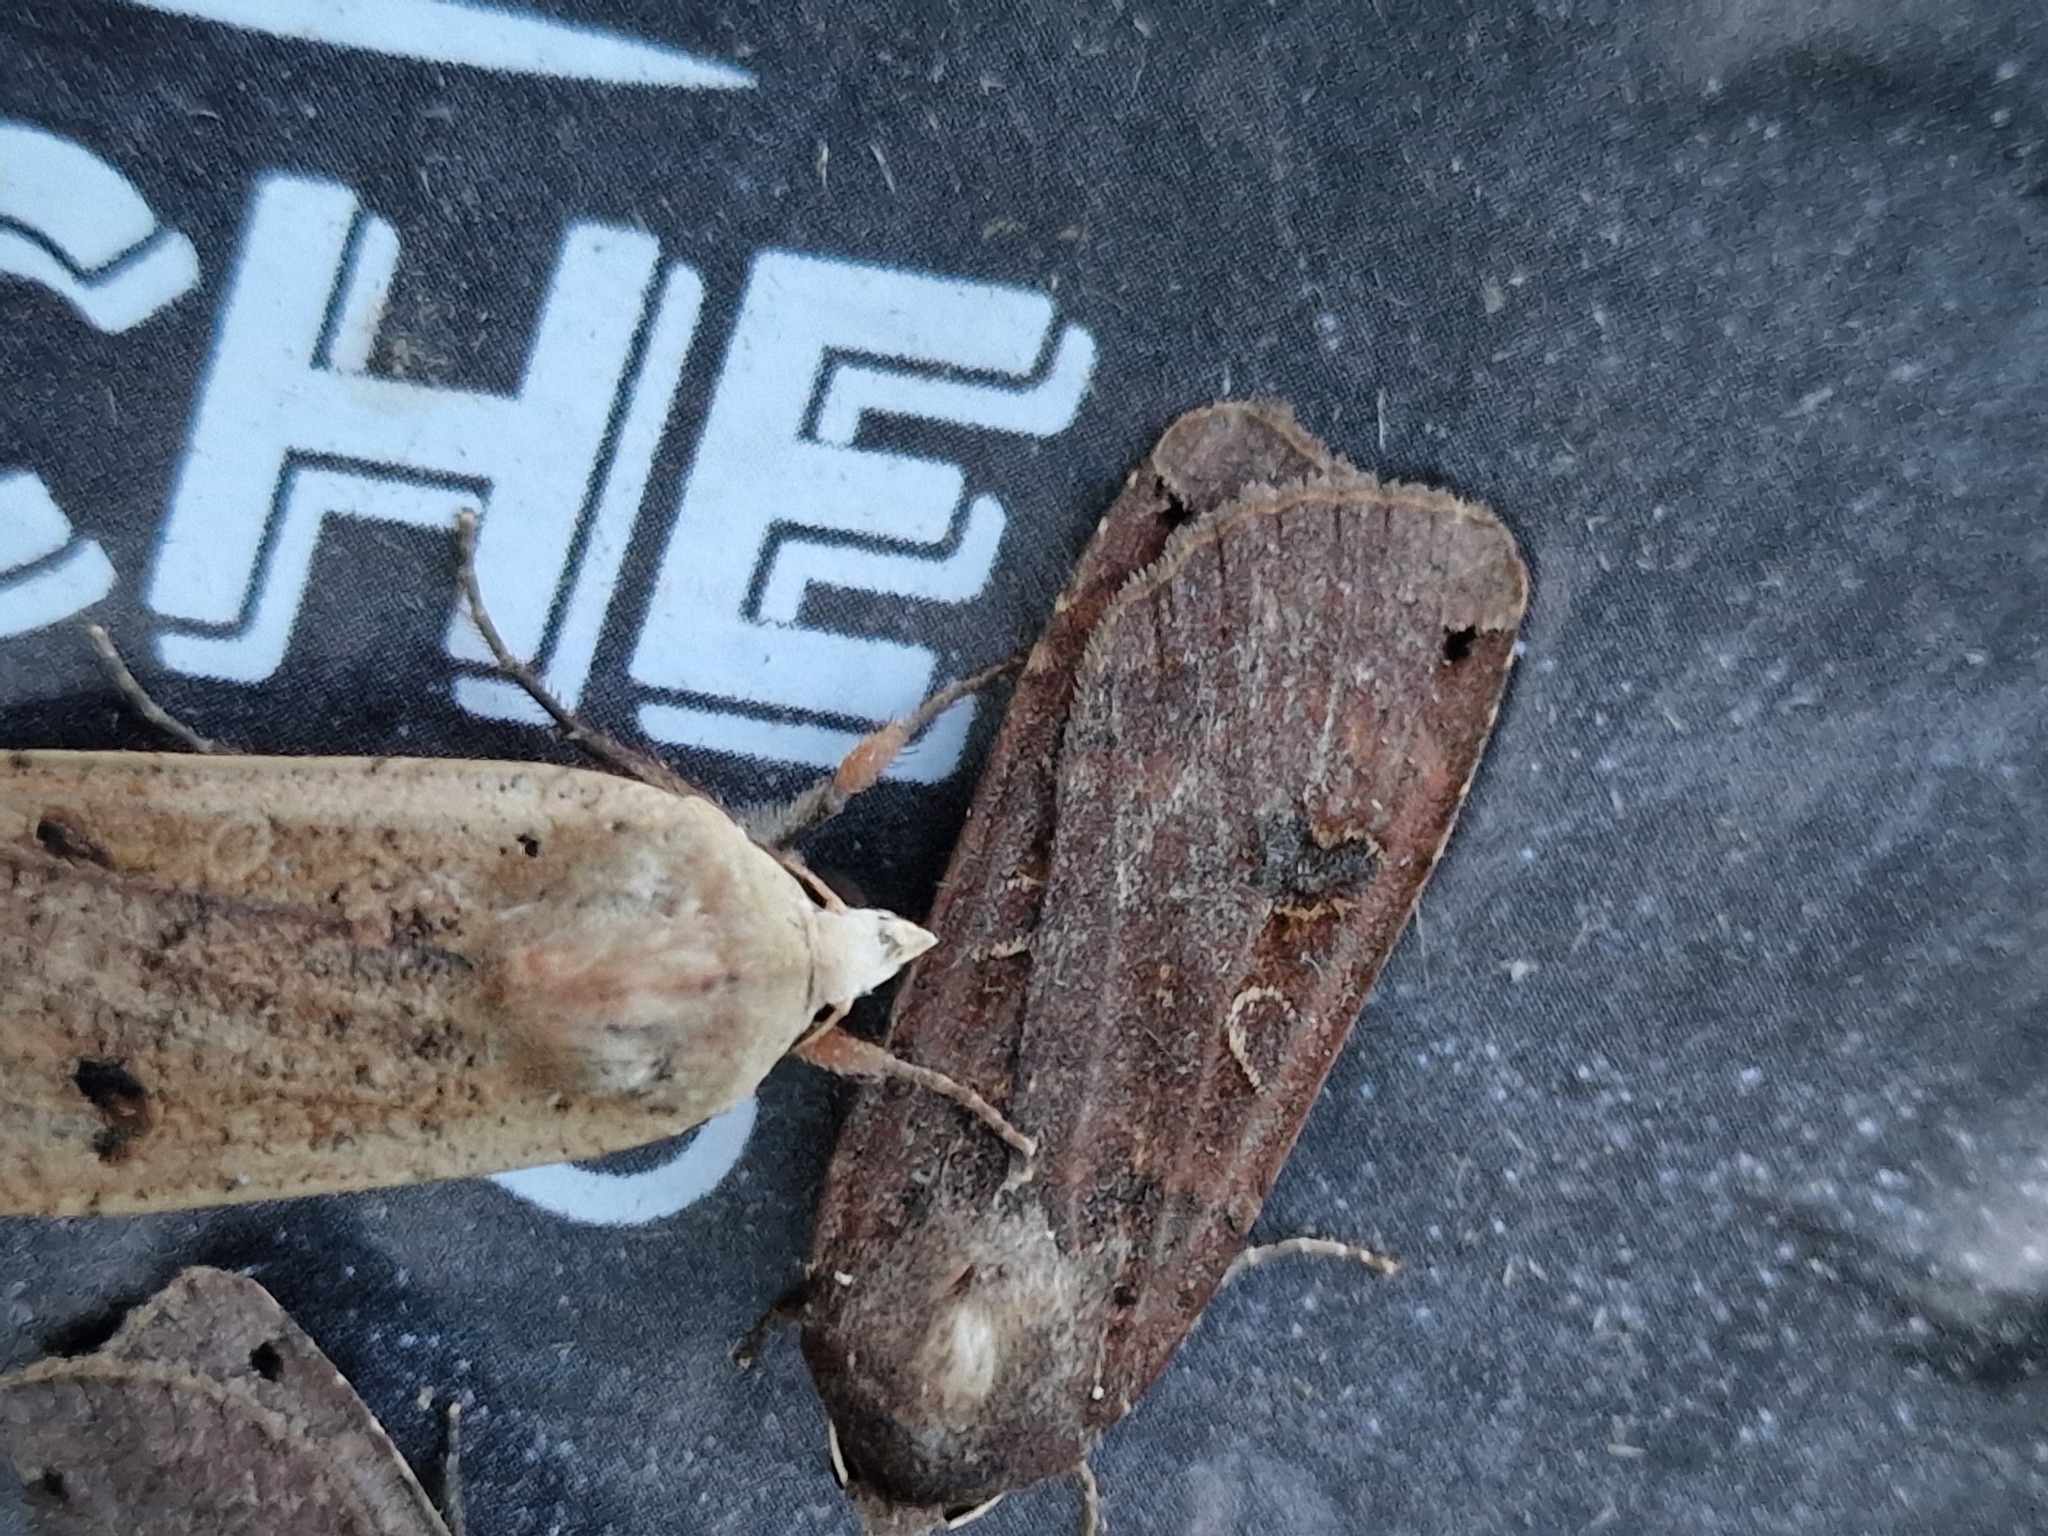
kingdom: Animalia
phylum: Arthropoda
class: Insecta
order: Lepidoptera
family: Noctuidae
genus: Noctua
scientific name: Noctua pronuba
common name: Large yellow underwing
